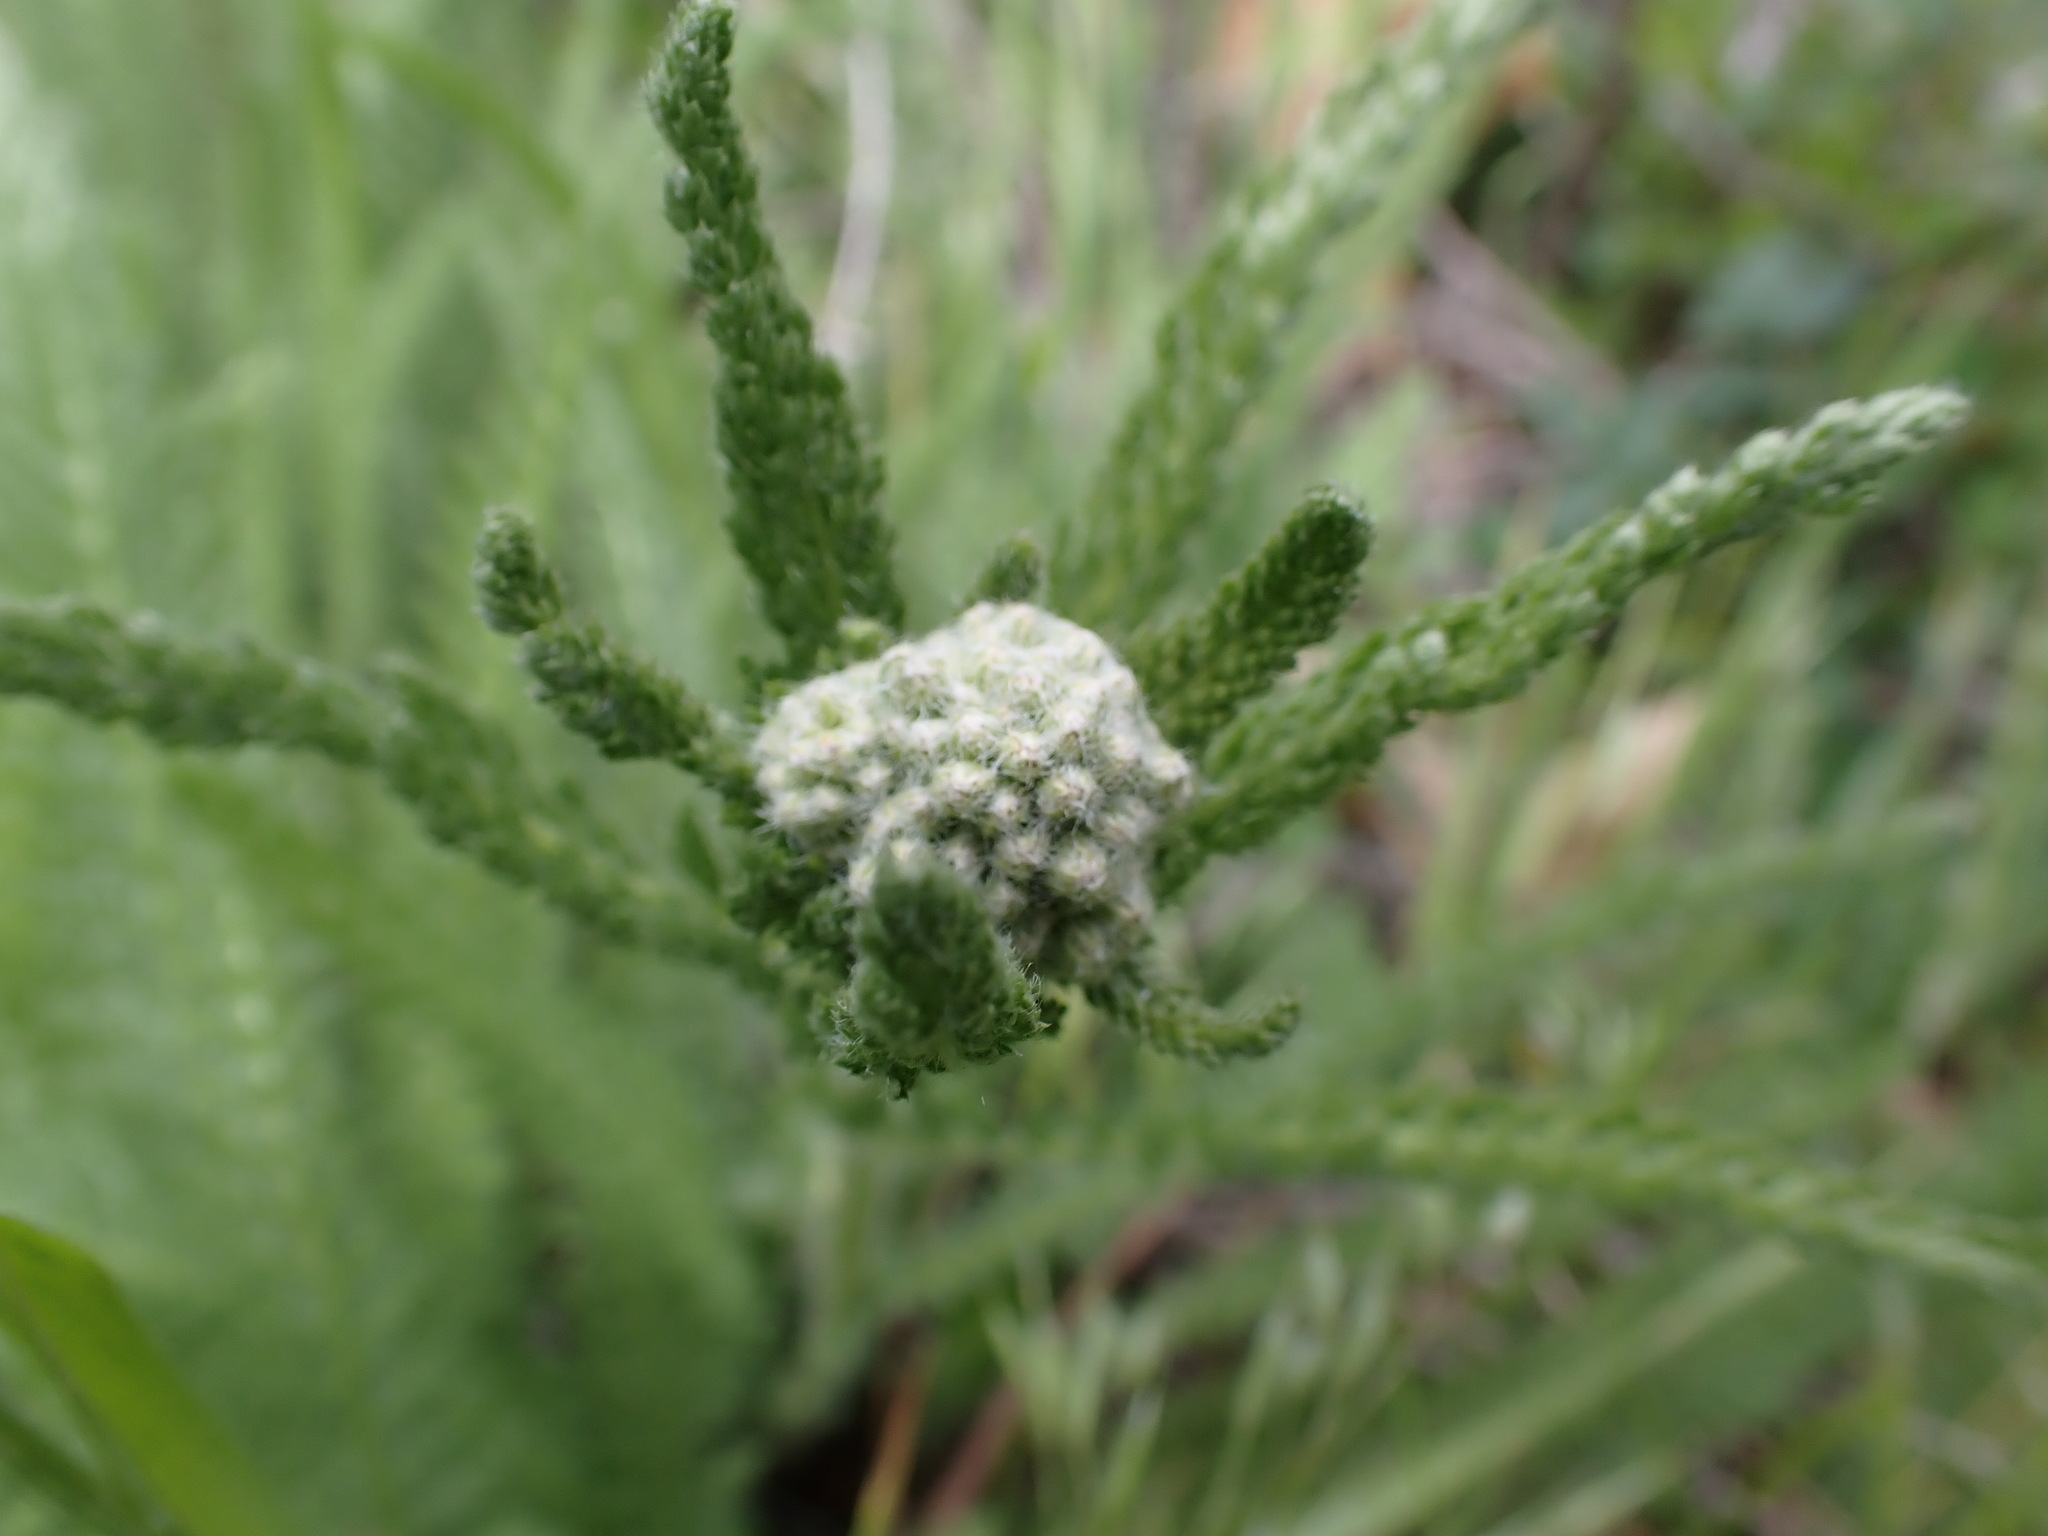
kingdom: Plantae
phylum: Tracheophyta
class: Magnoliopsida
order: Asterales
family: Asteraceae
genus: Achillea
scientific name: Achillea millefolium
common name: Yarrow
